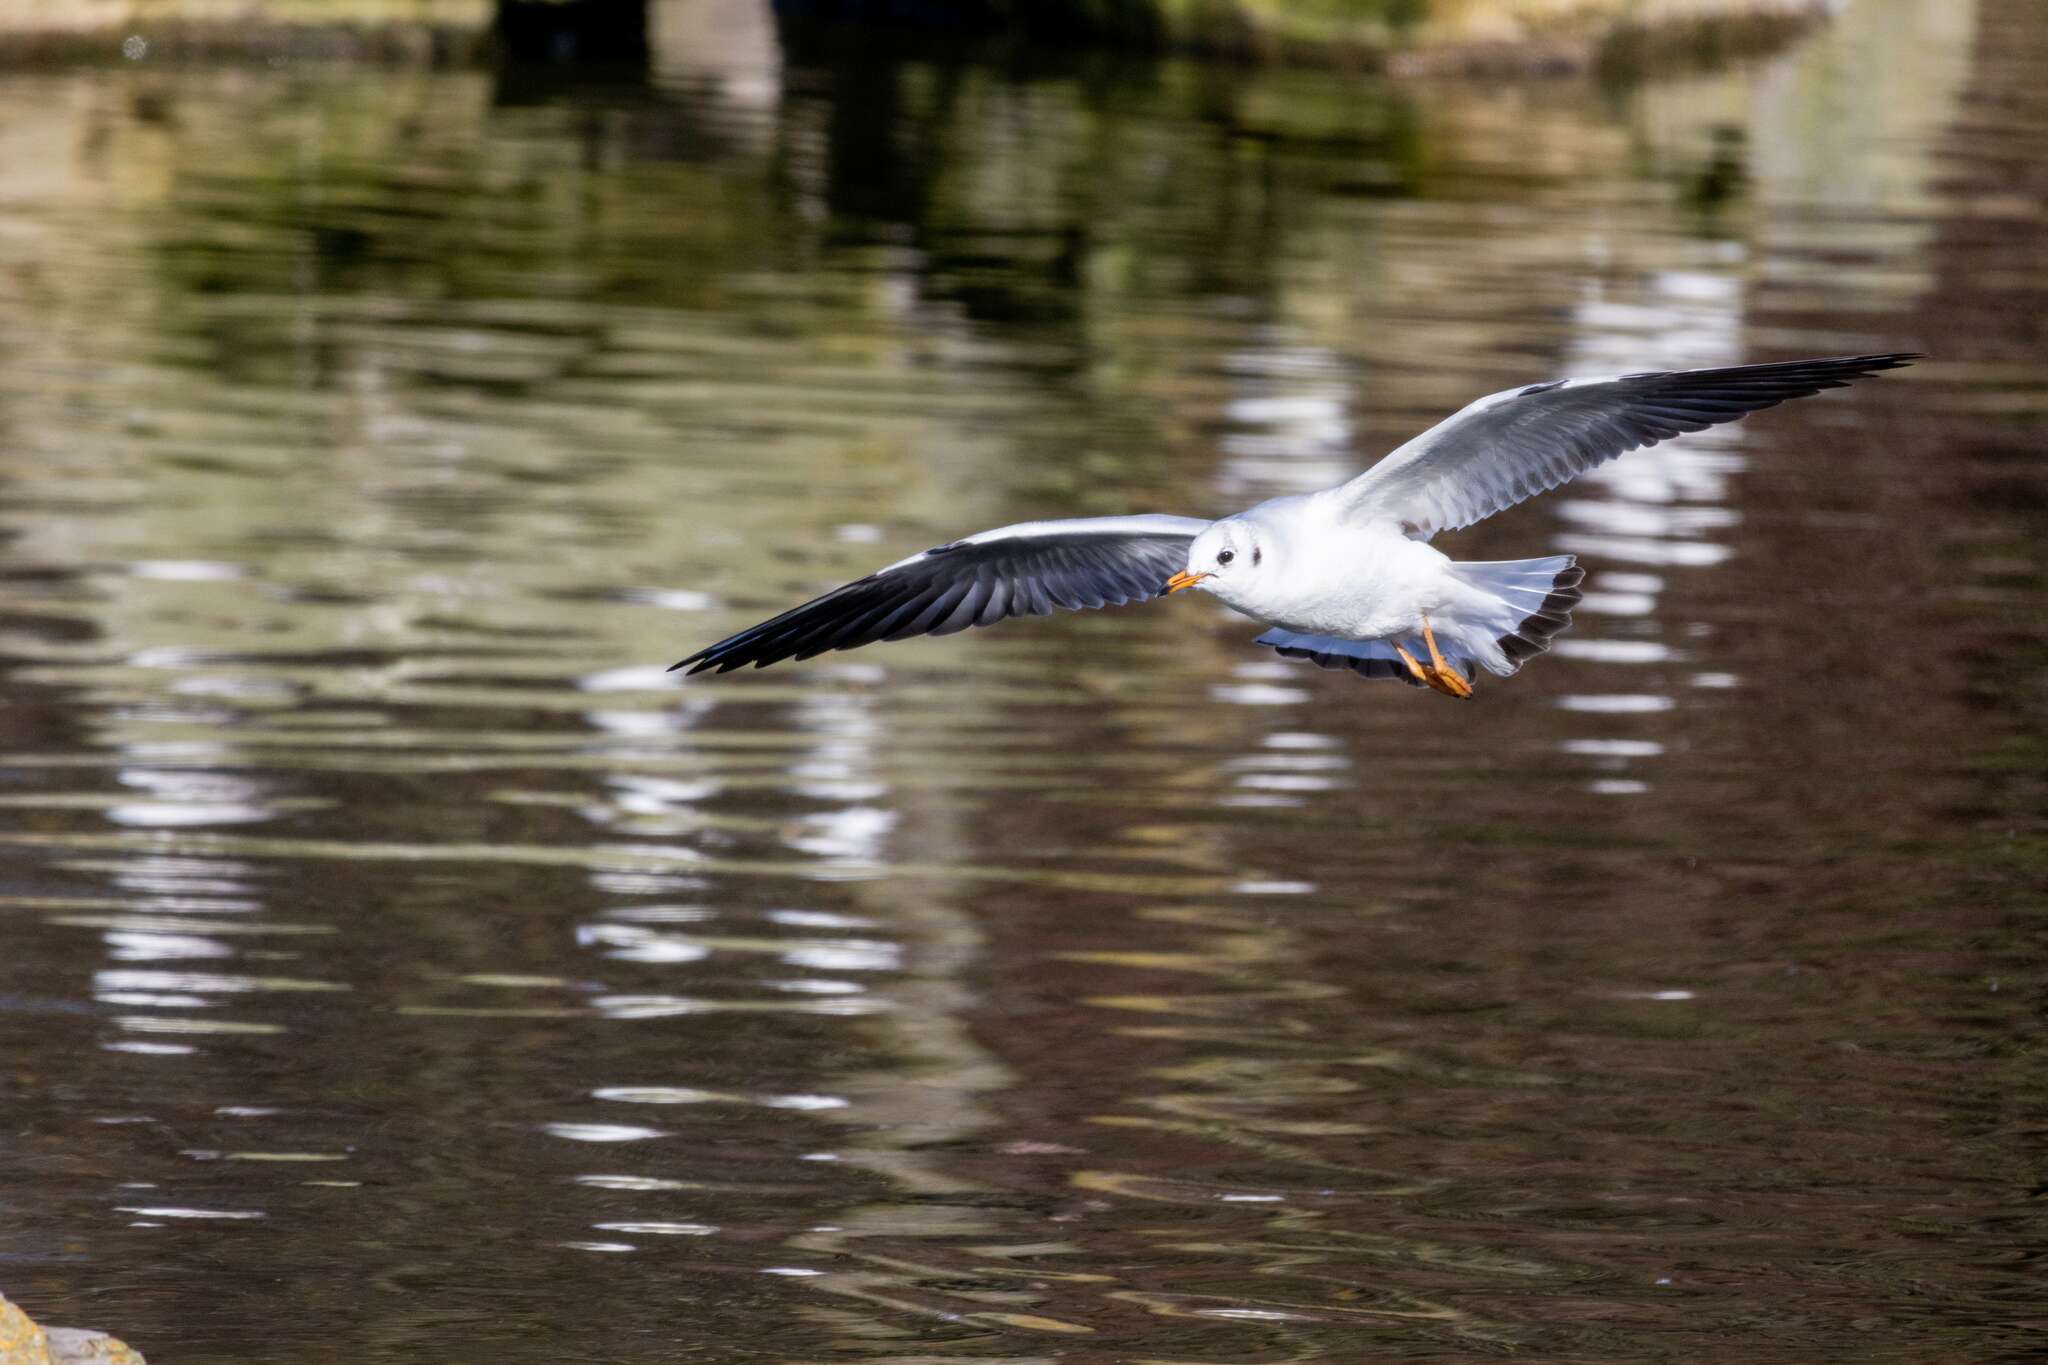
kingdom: Animalia
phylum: Chordata
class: Aves
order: Charadriiformes
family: Laridae
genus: Chroicocephalus
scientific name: Chroicocephalus ridibundus
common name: Black-headed gull
